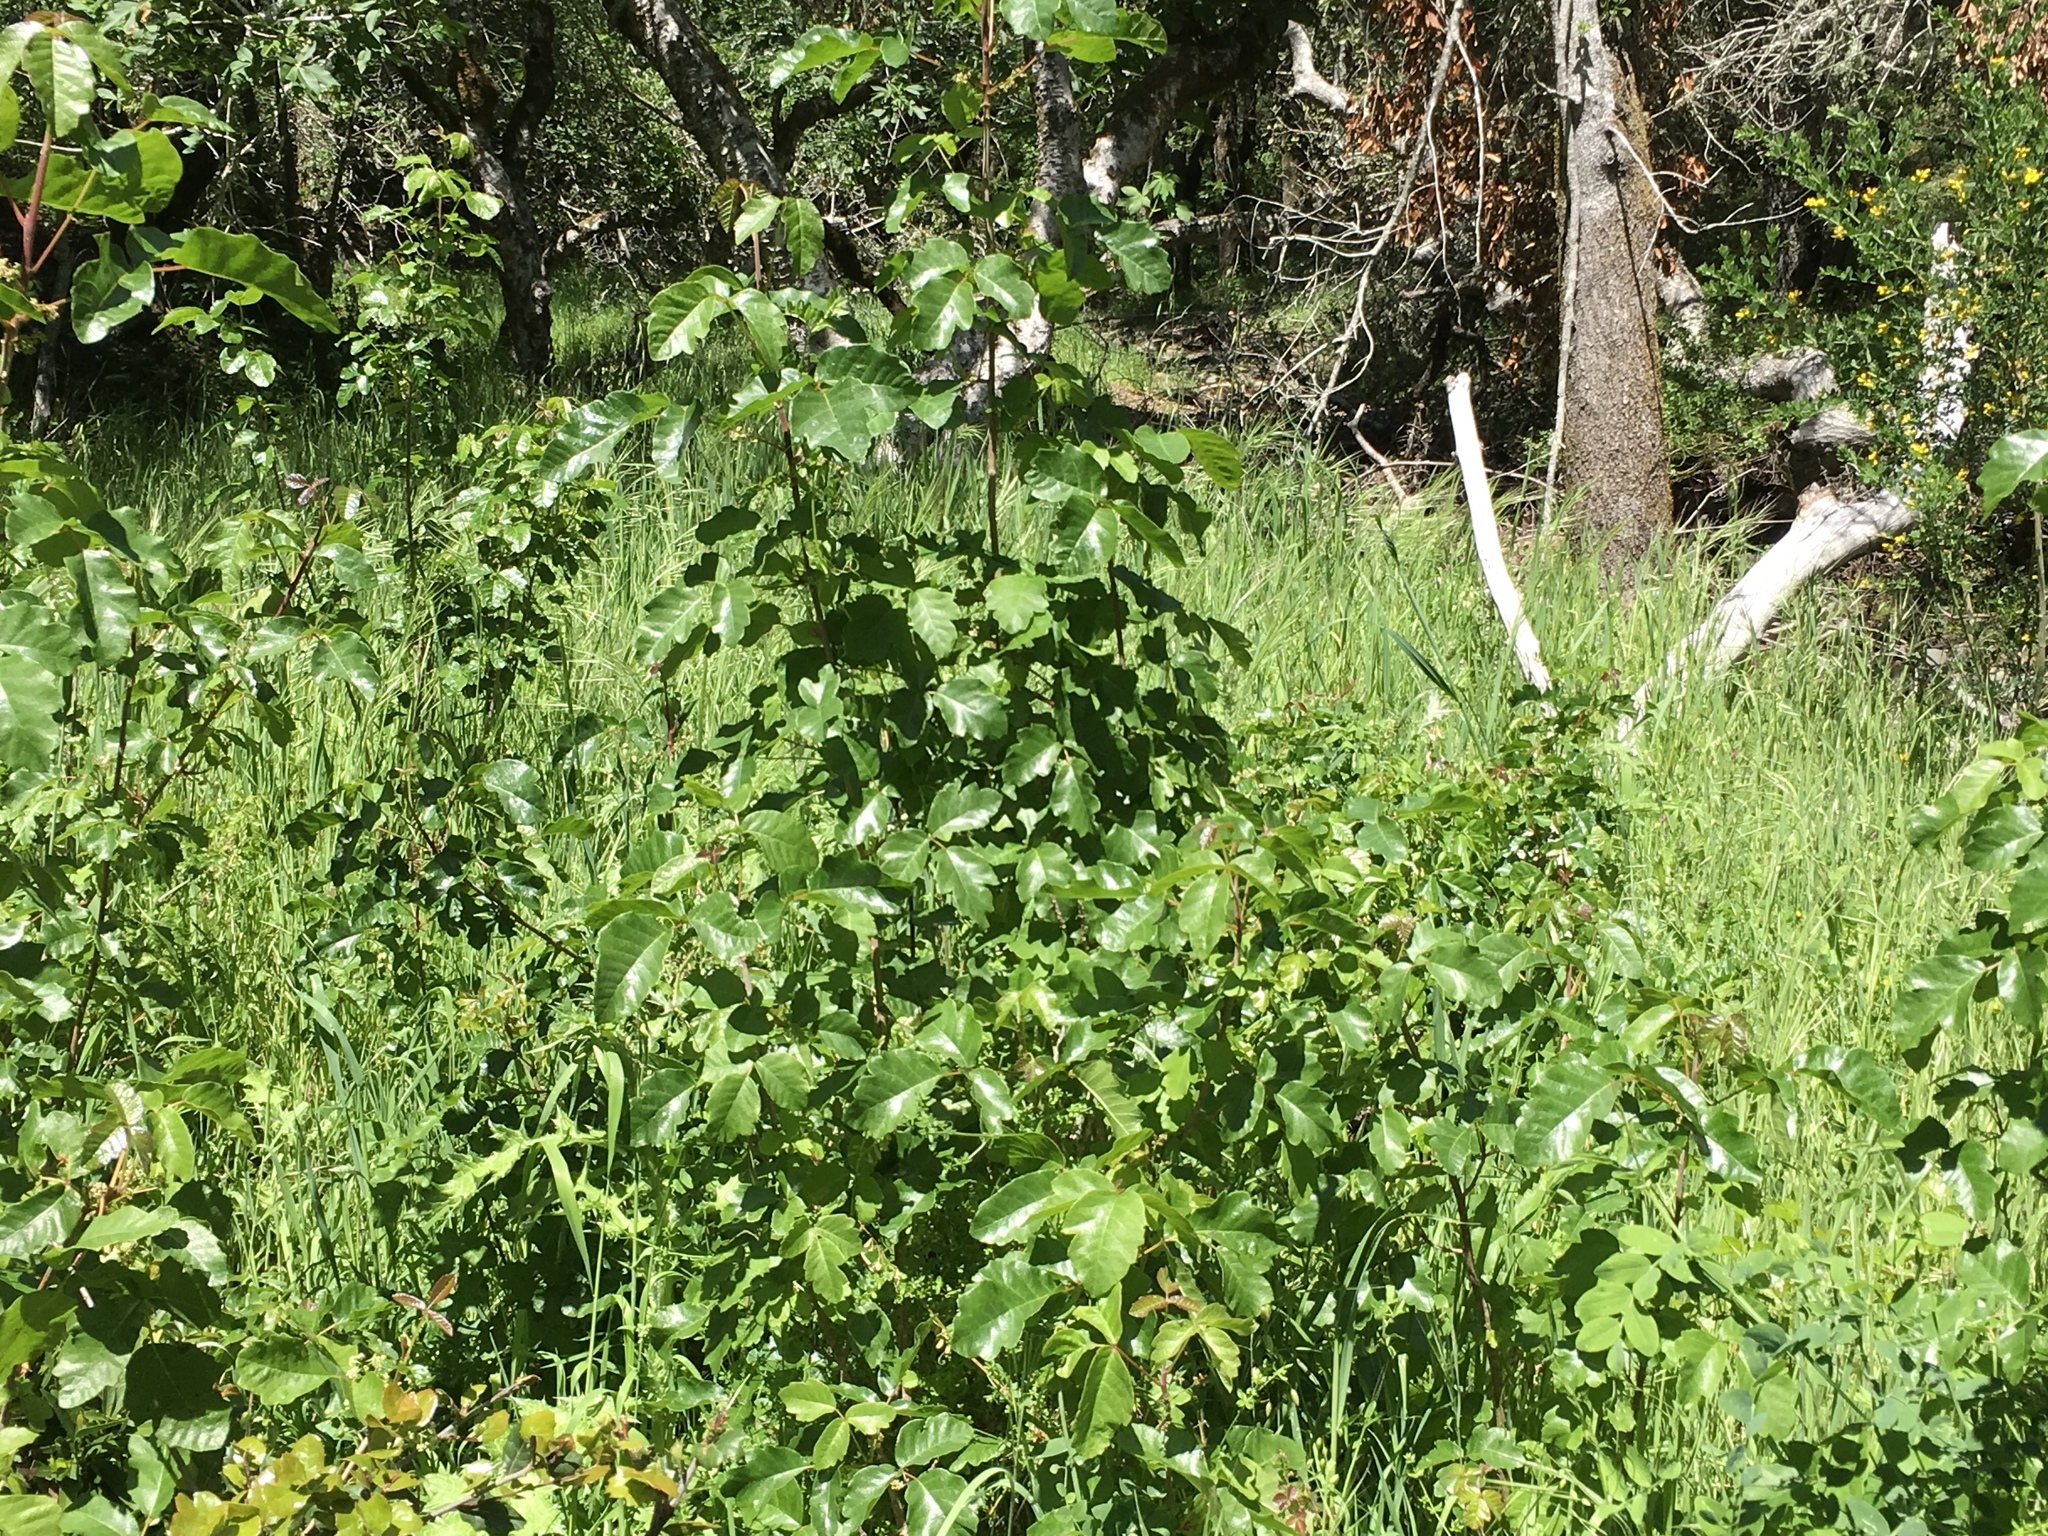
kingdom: Plantae
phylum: Tracheophyta
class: Magnoliopsida
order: Sapindales
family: Anacardiaceae
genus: Toxicodendron
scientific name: Toxicodendron diversilobum
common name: Pacific poison-oak
